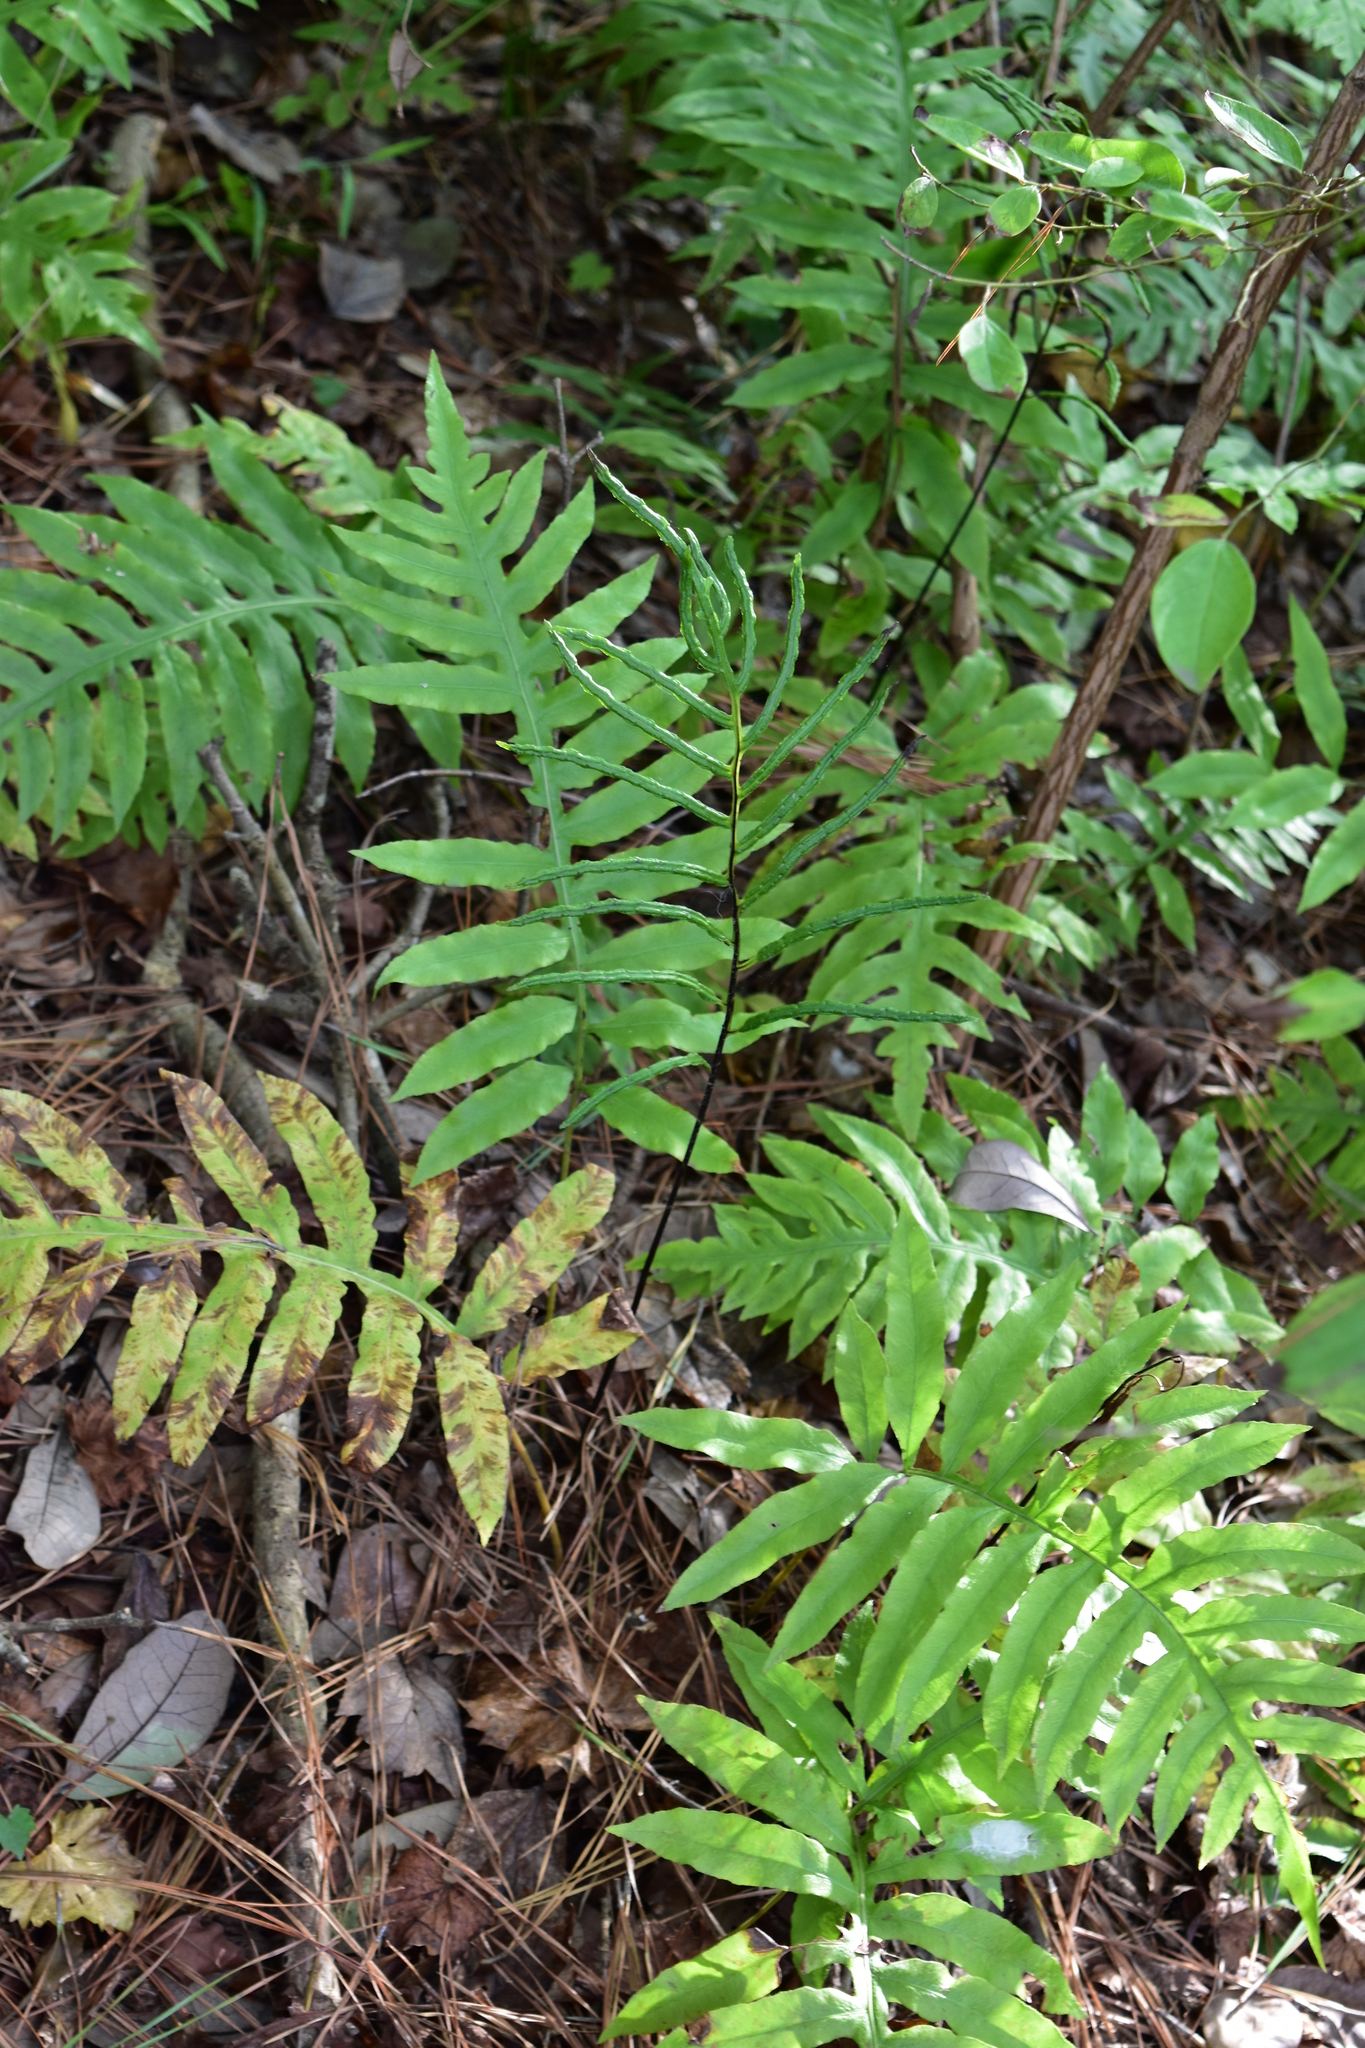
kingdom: Plantae
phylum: Tracheophyta
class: Polypodiopsida
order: Polypodiales
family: Blechnaceae
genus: Lorinseria
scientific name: Lorinseria areolata
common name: Dwarf chain fern
